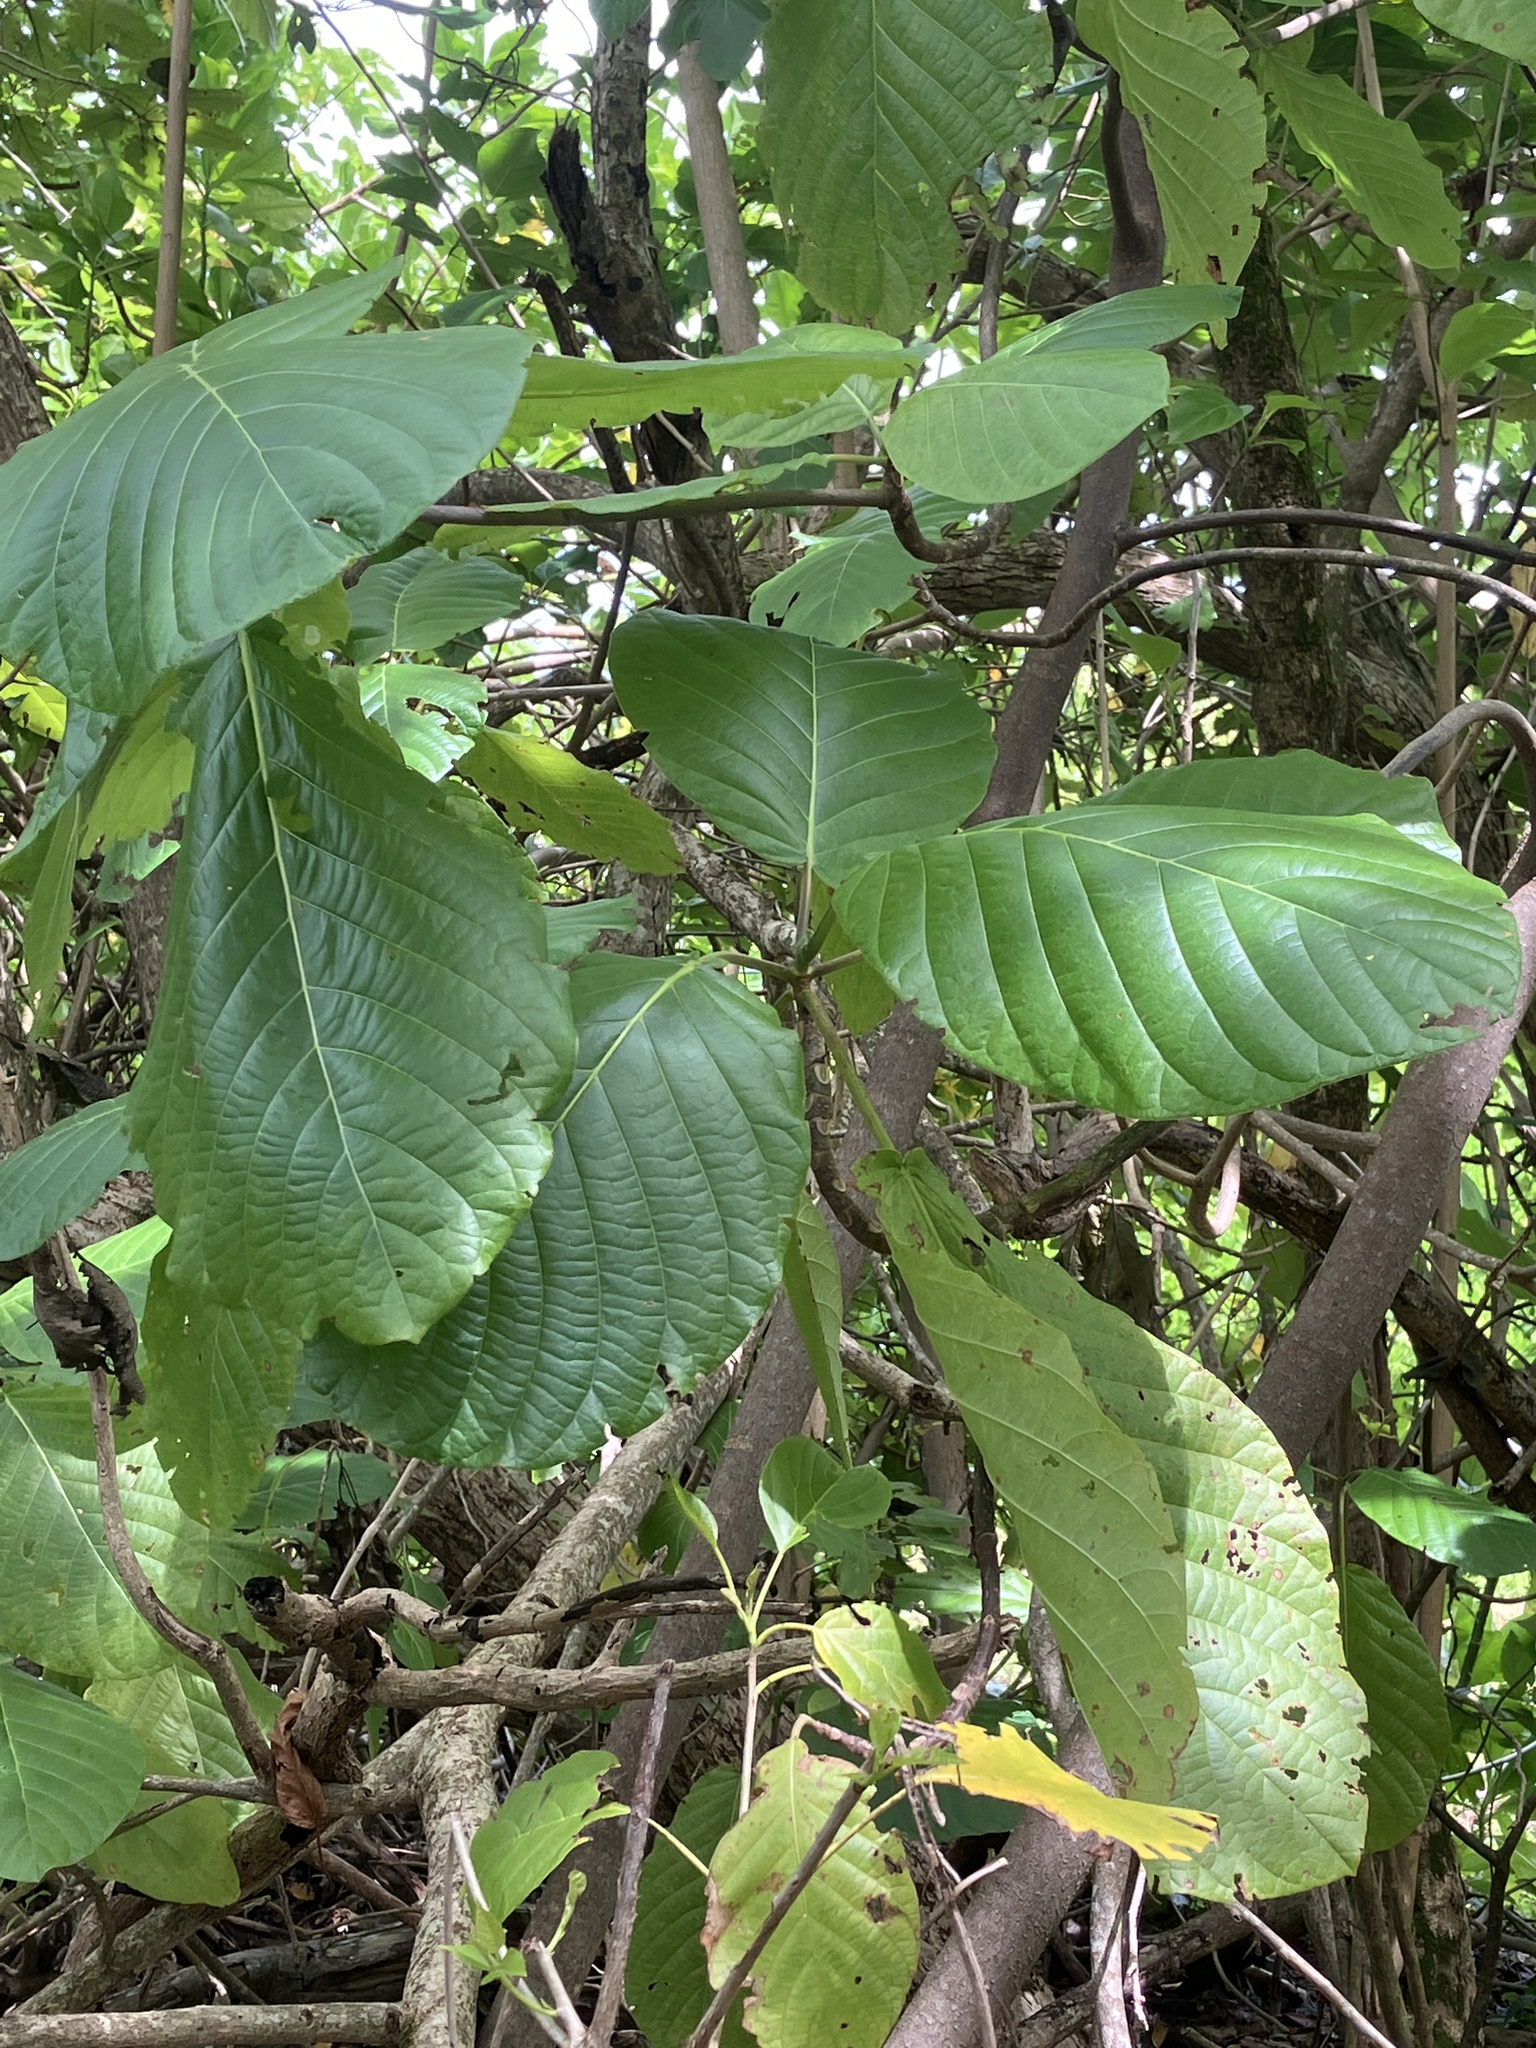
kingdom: Plantae
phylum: Tracheophyta
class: Magnoliopsida
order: Gentianales
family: Rubiaceae
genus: Guettarda
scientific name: Guettarda speciosa
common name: Sea randa
